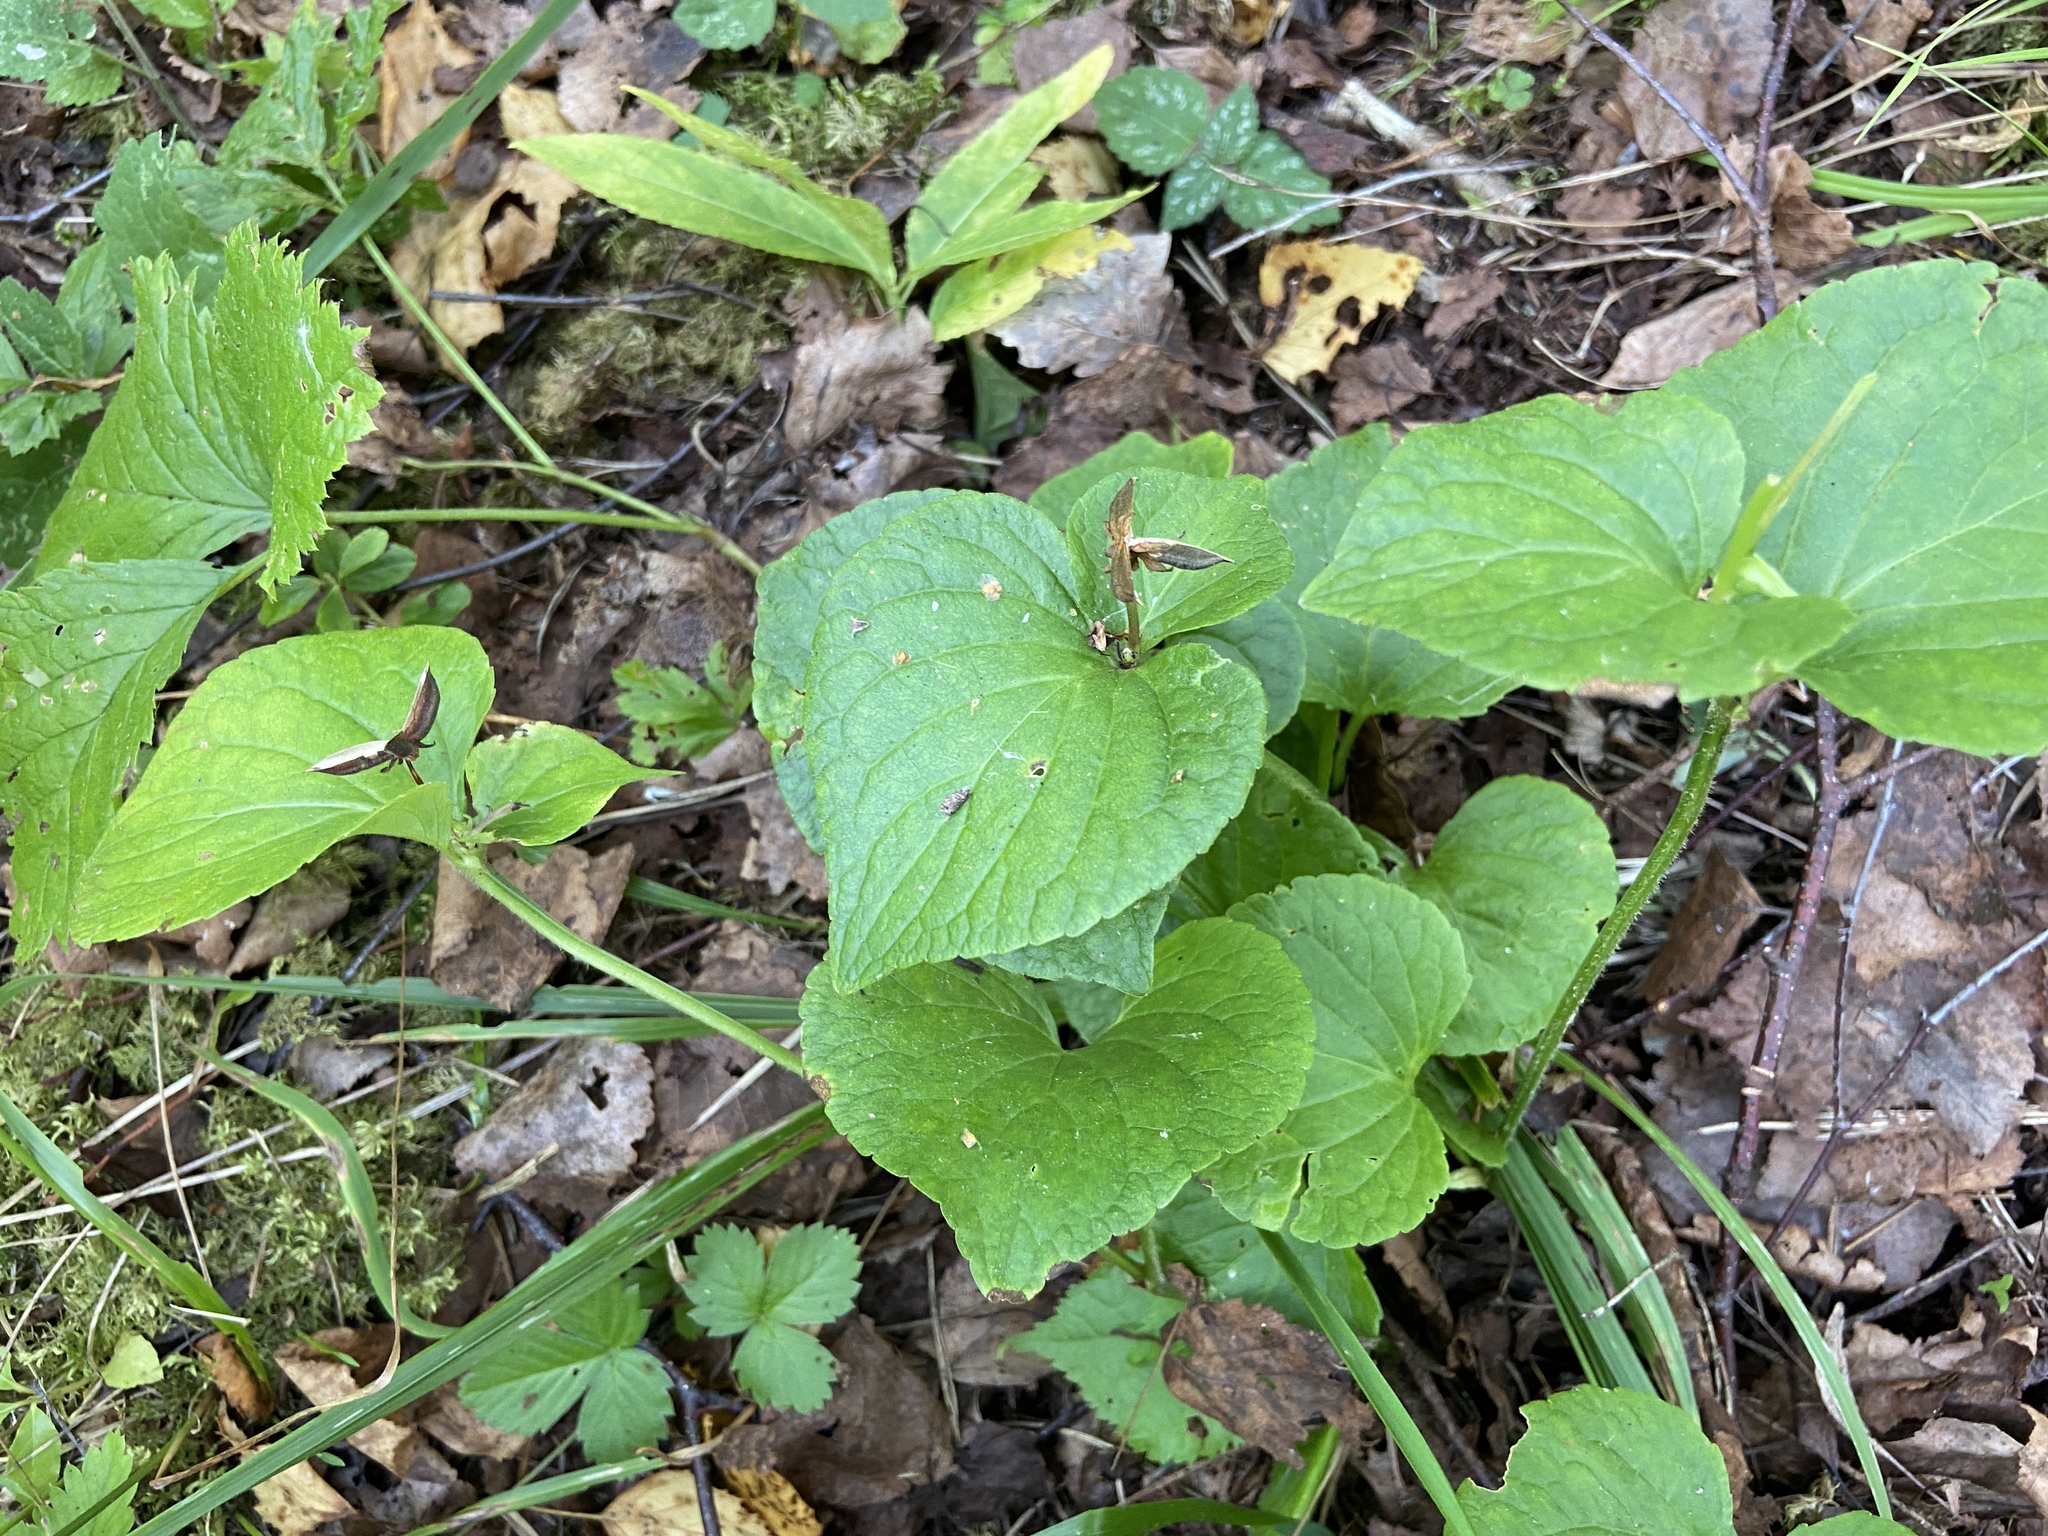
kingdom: Plantae
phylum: Tracheophyta
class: Magnoliopsida
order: Malpighiales
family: Violaceae
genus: Viola
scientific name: Viola mirabilis
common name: Wonder violet
